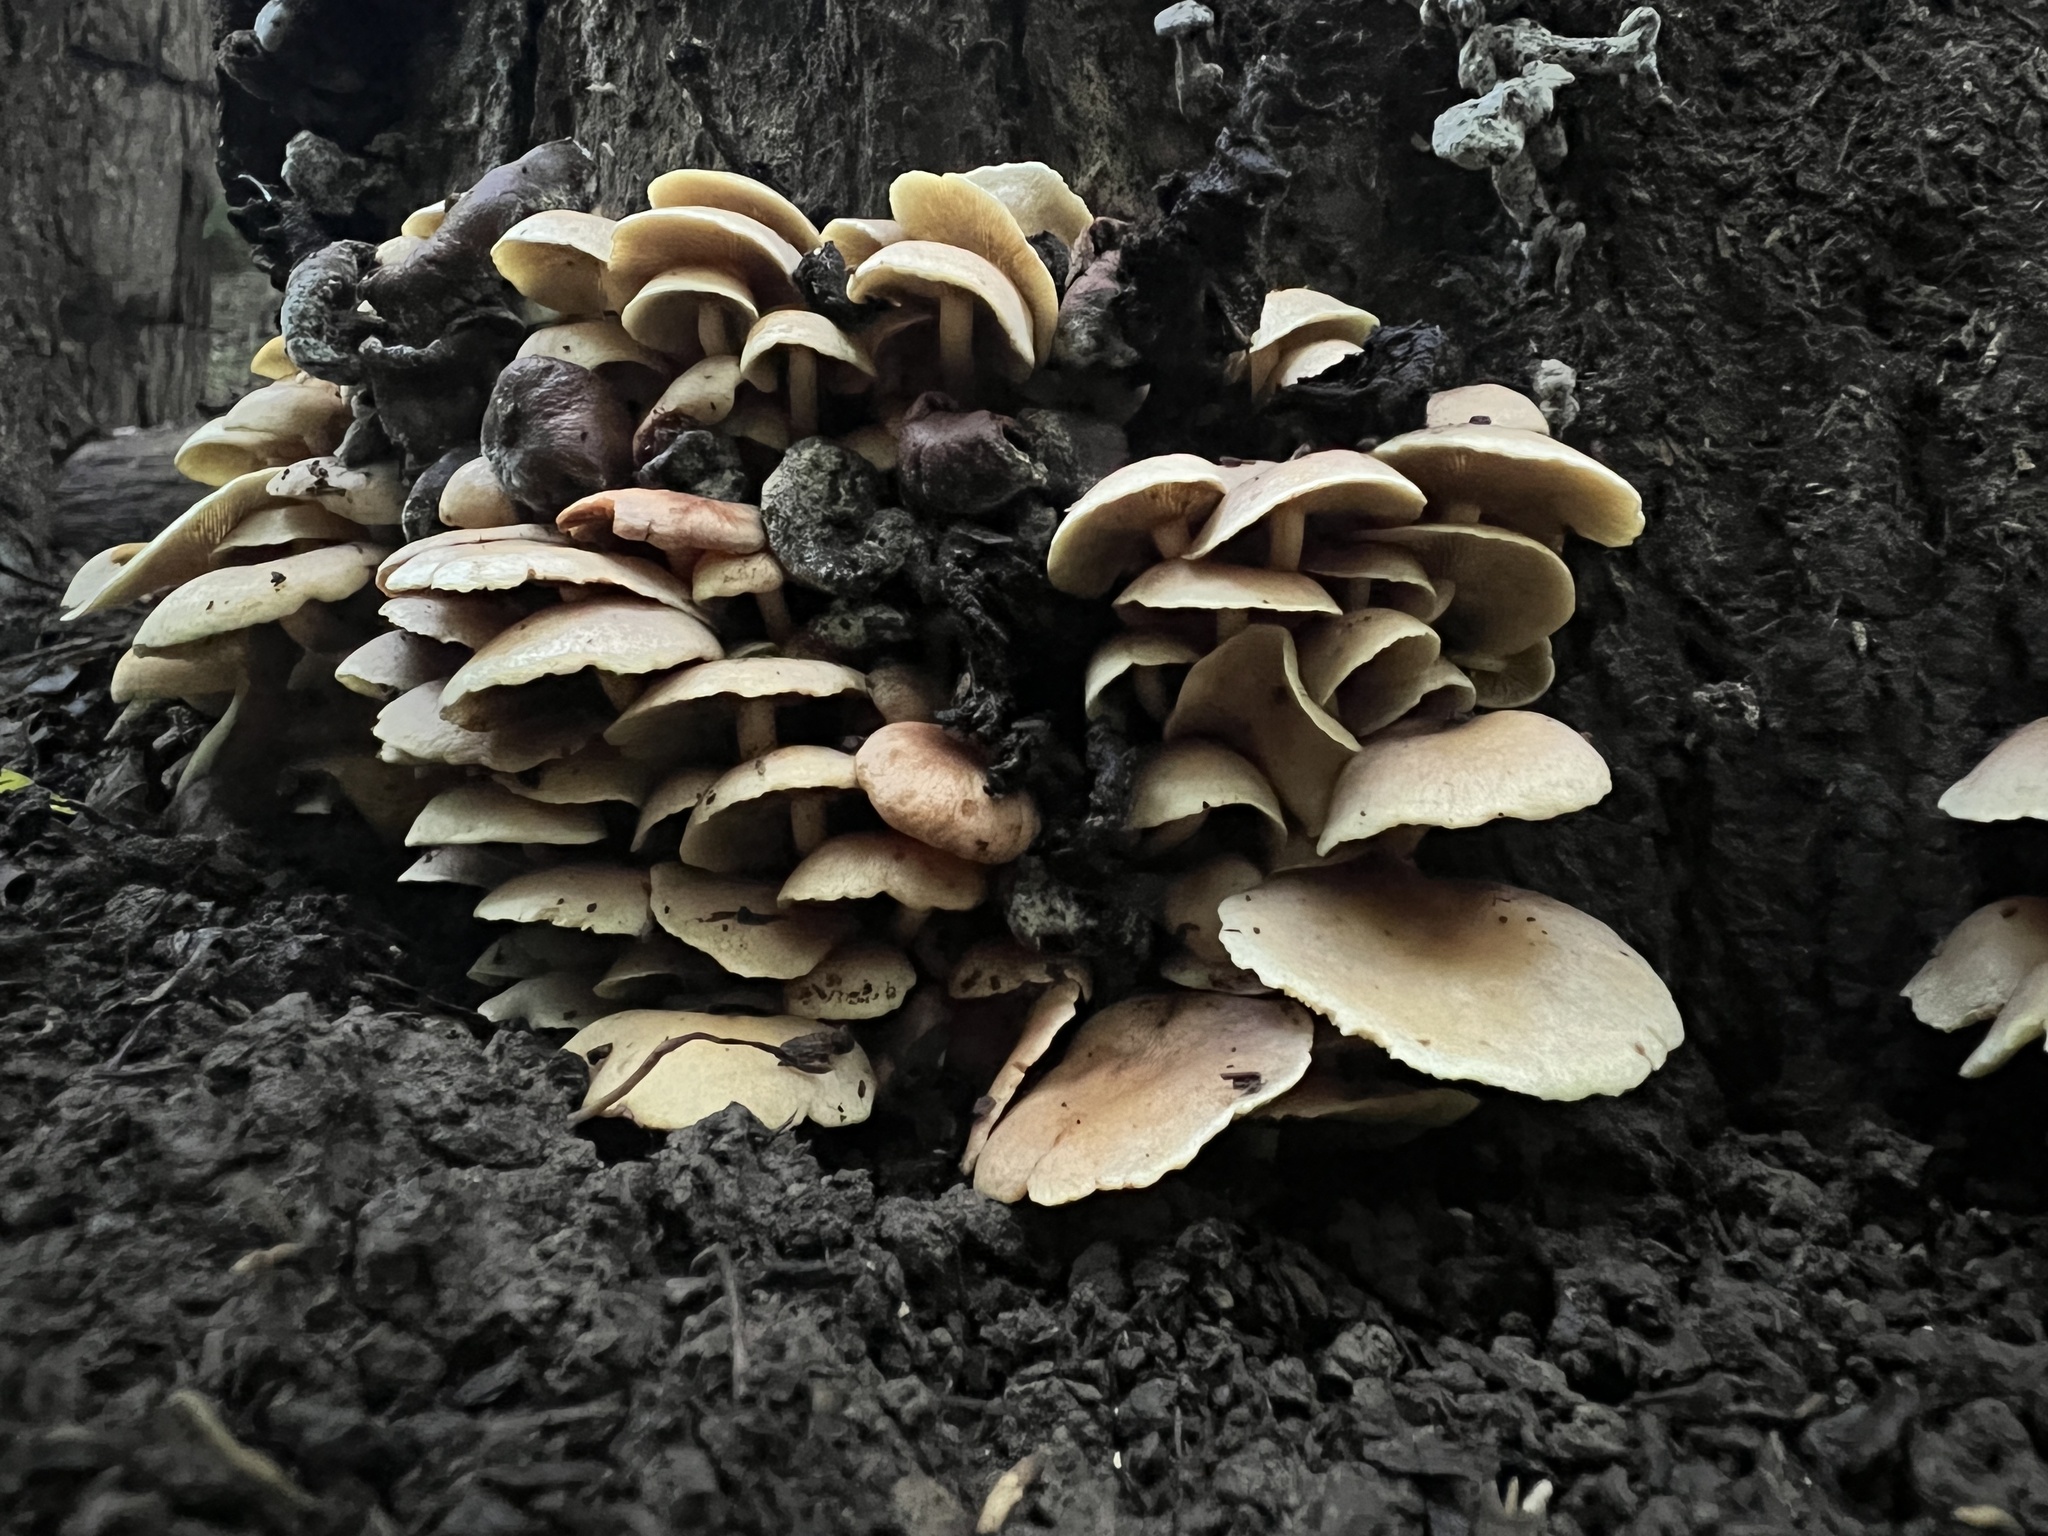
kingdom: Fungi
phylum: Basidiomycota
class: Agaricomycetes
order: Agaricales
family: Strophariaceae
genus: Hypholoma
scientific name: Hypholoma fasciculare
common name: Sulphur tuft
